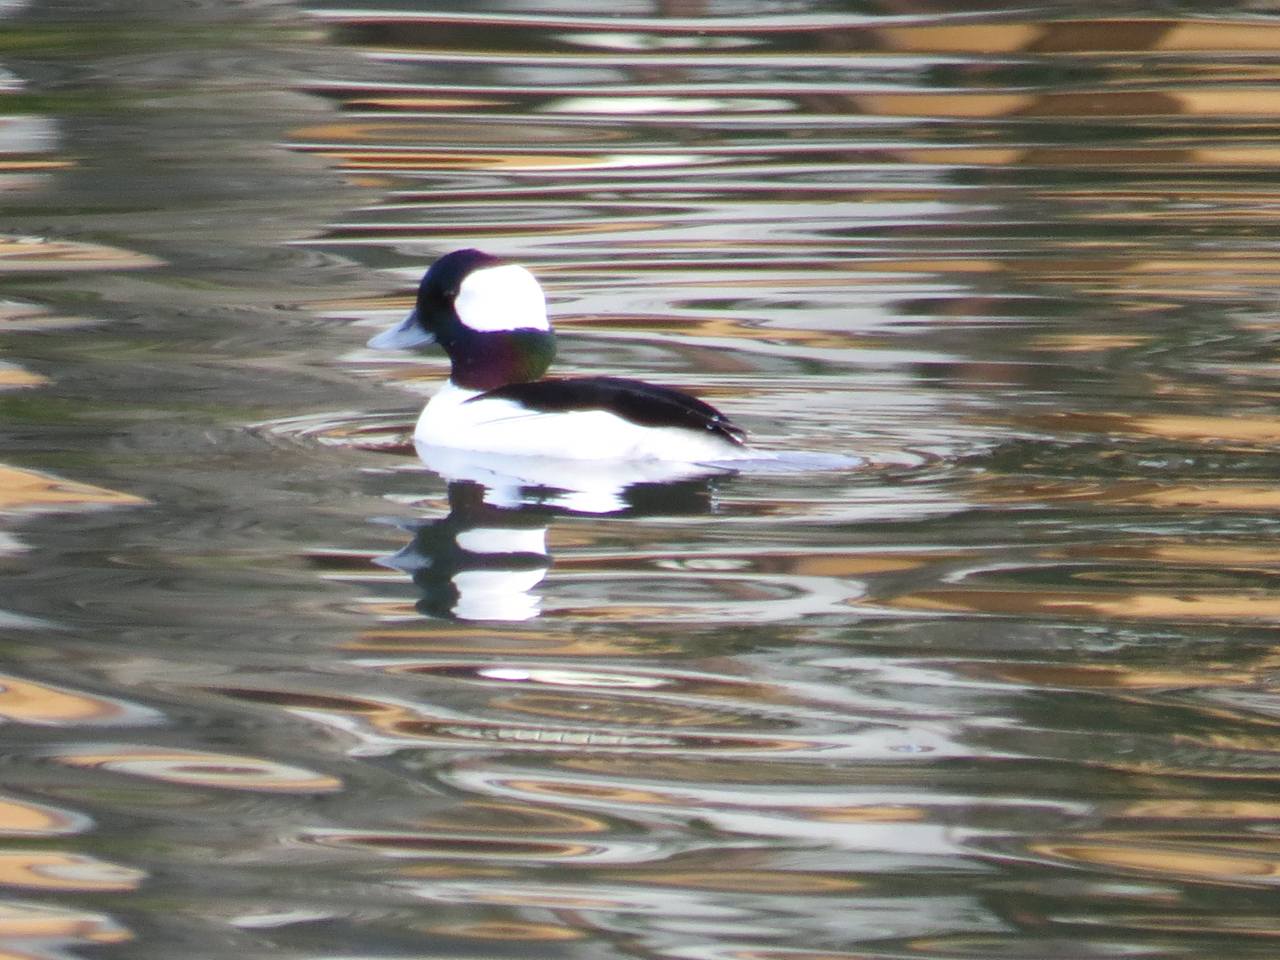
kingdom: Animalia
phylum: Chordata
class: Aves
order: Anseriformes
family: Anatidae
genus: Bucephala
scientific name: Bucephala albeola
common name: Bufflehead
